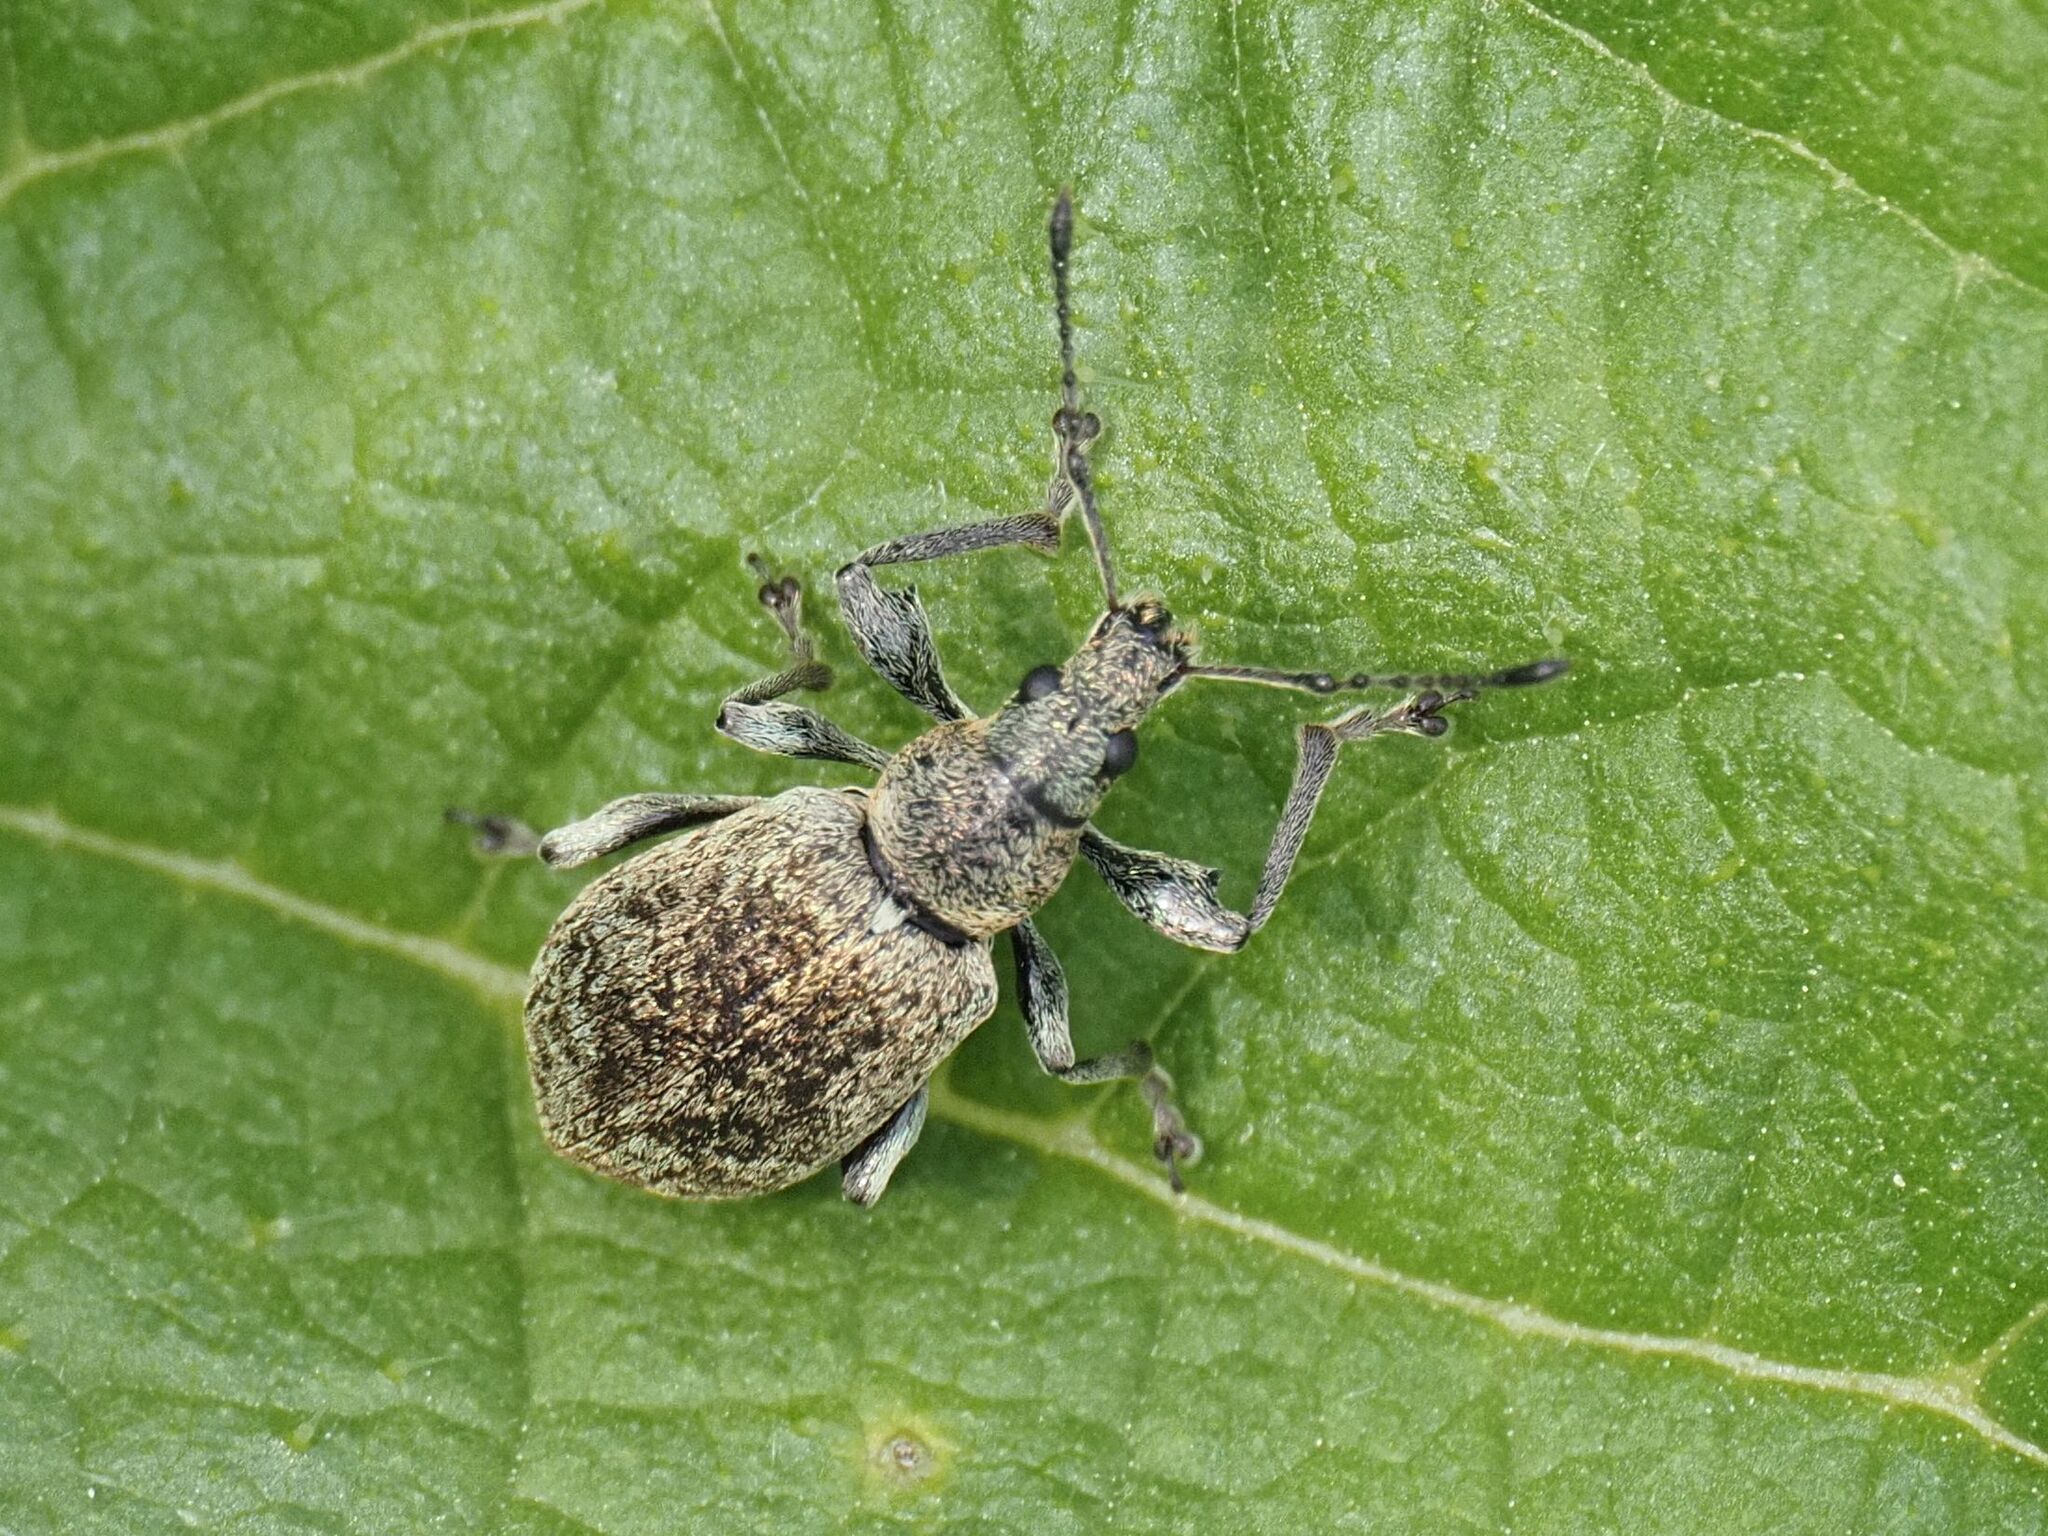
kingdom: Animalia
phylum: Arthropoda
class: Insecta
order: Coleoptera
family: Curculionidae
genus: Phyllobius
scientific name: Phyllobius pomaceus
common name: Green nettle weevil
